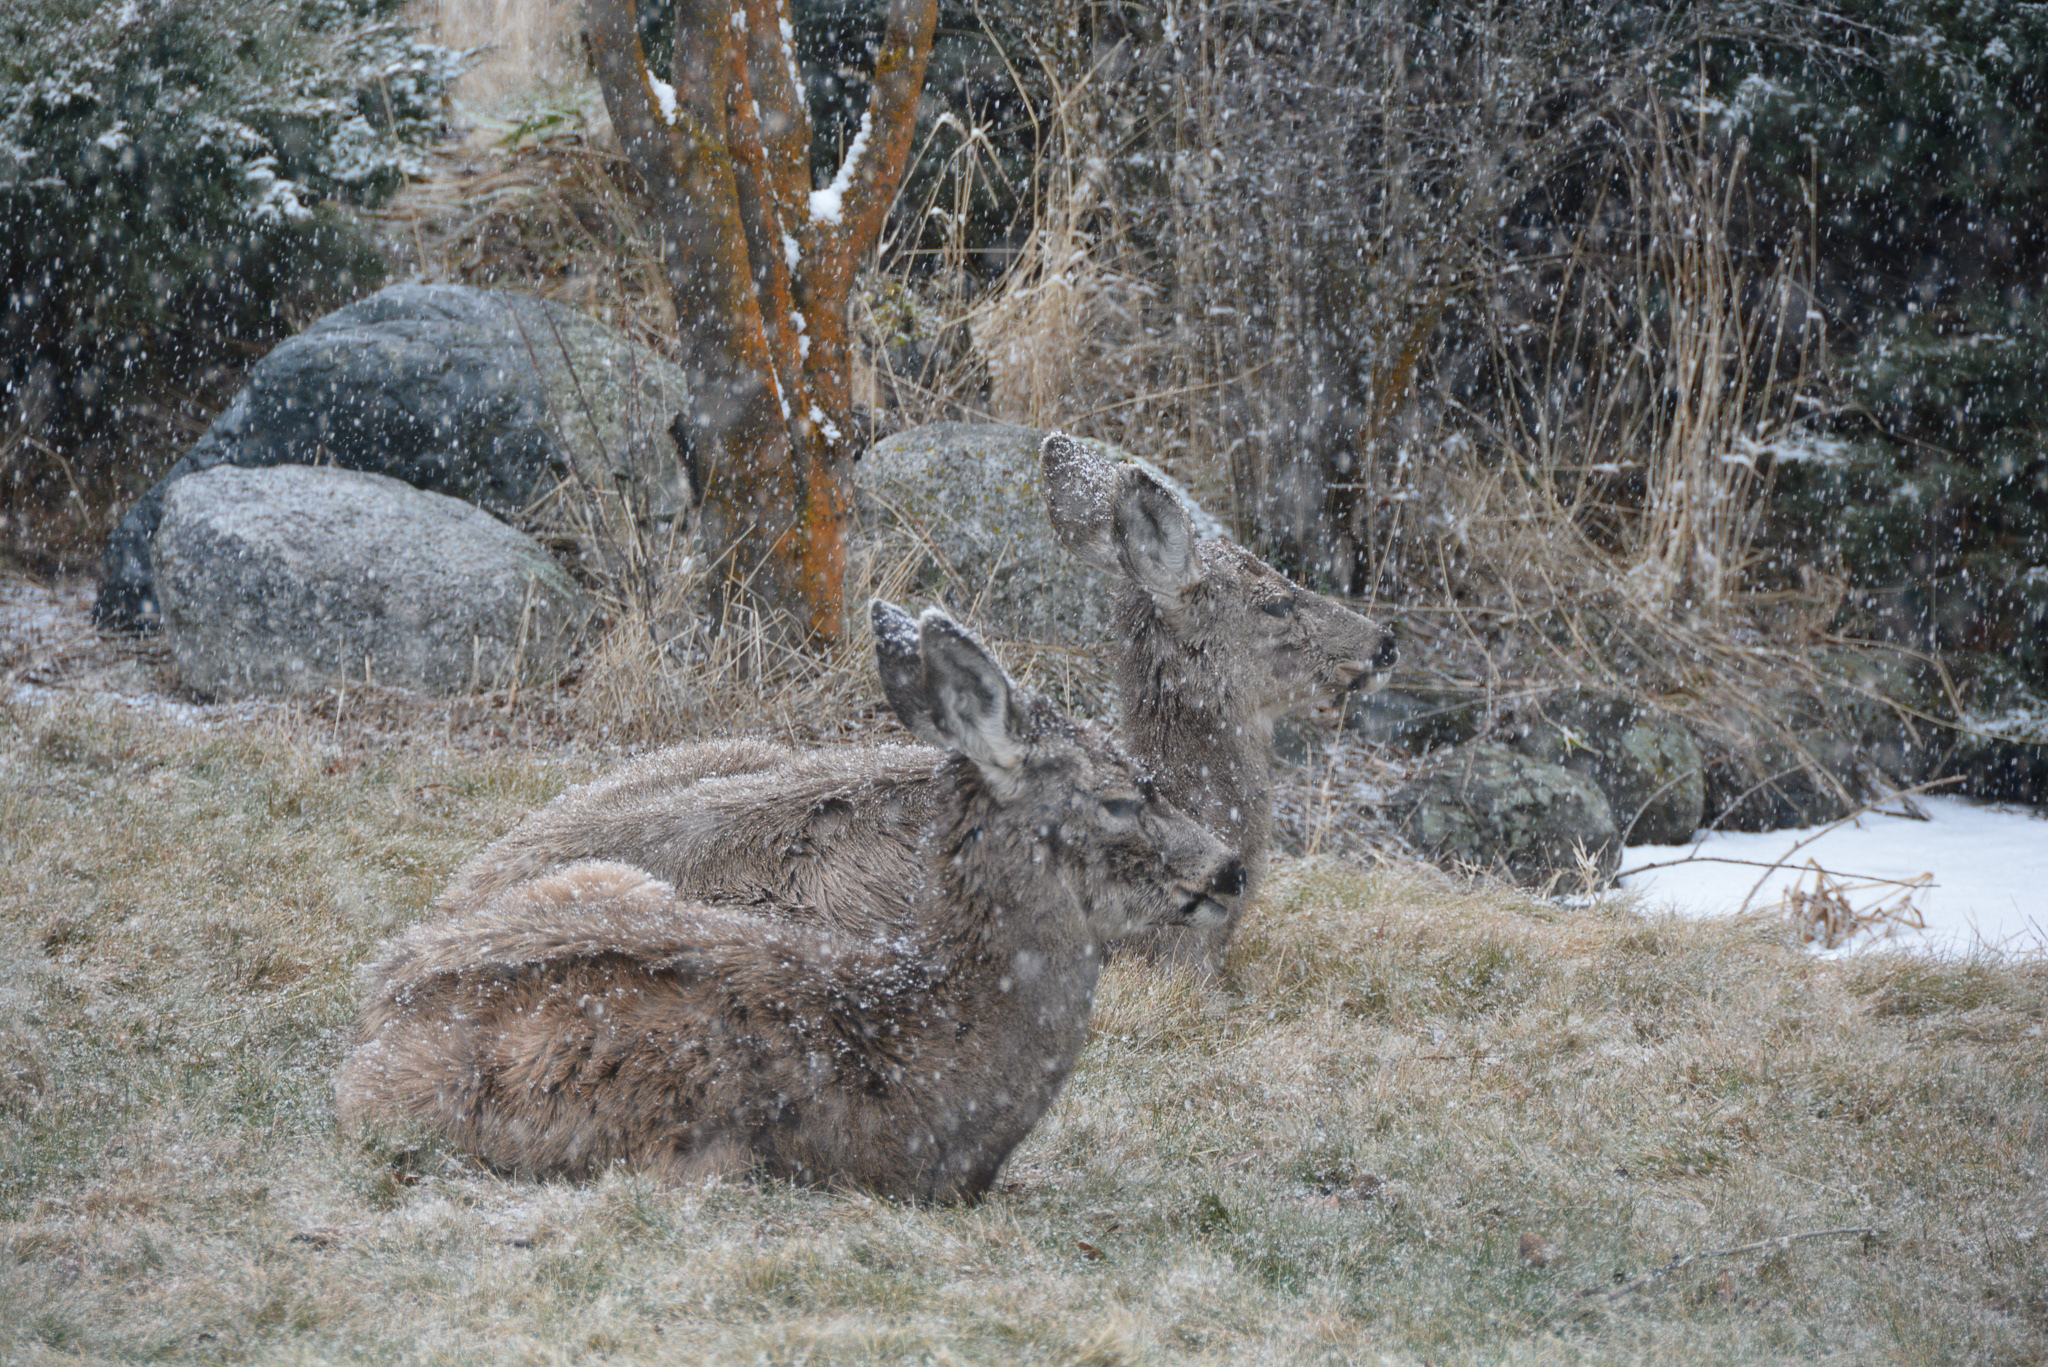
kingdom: Animalia
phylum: Chordata
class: Mammalia
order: Artiodactyla
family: Cervidae
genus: Odocoileus
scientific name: Odocoileus hemionus
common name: Mule deer
